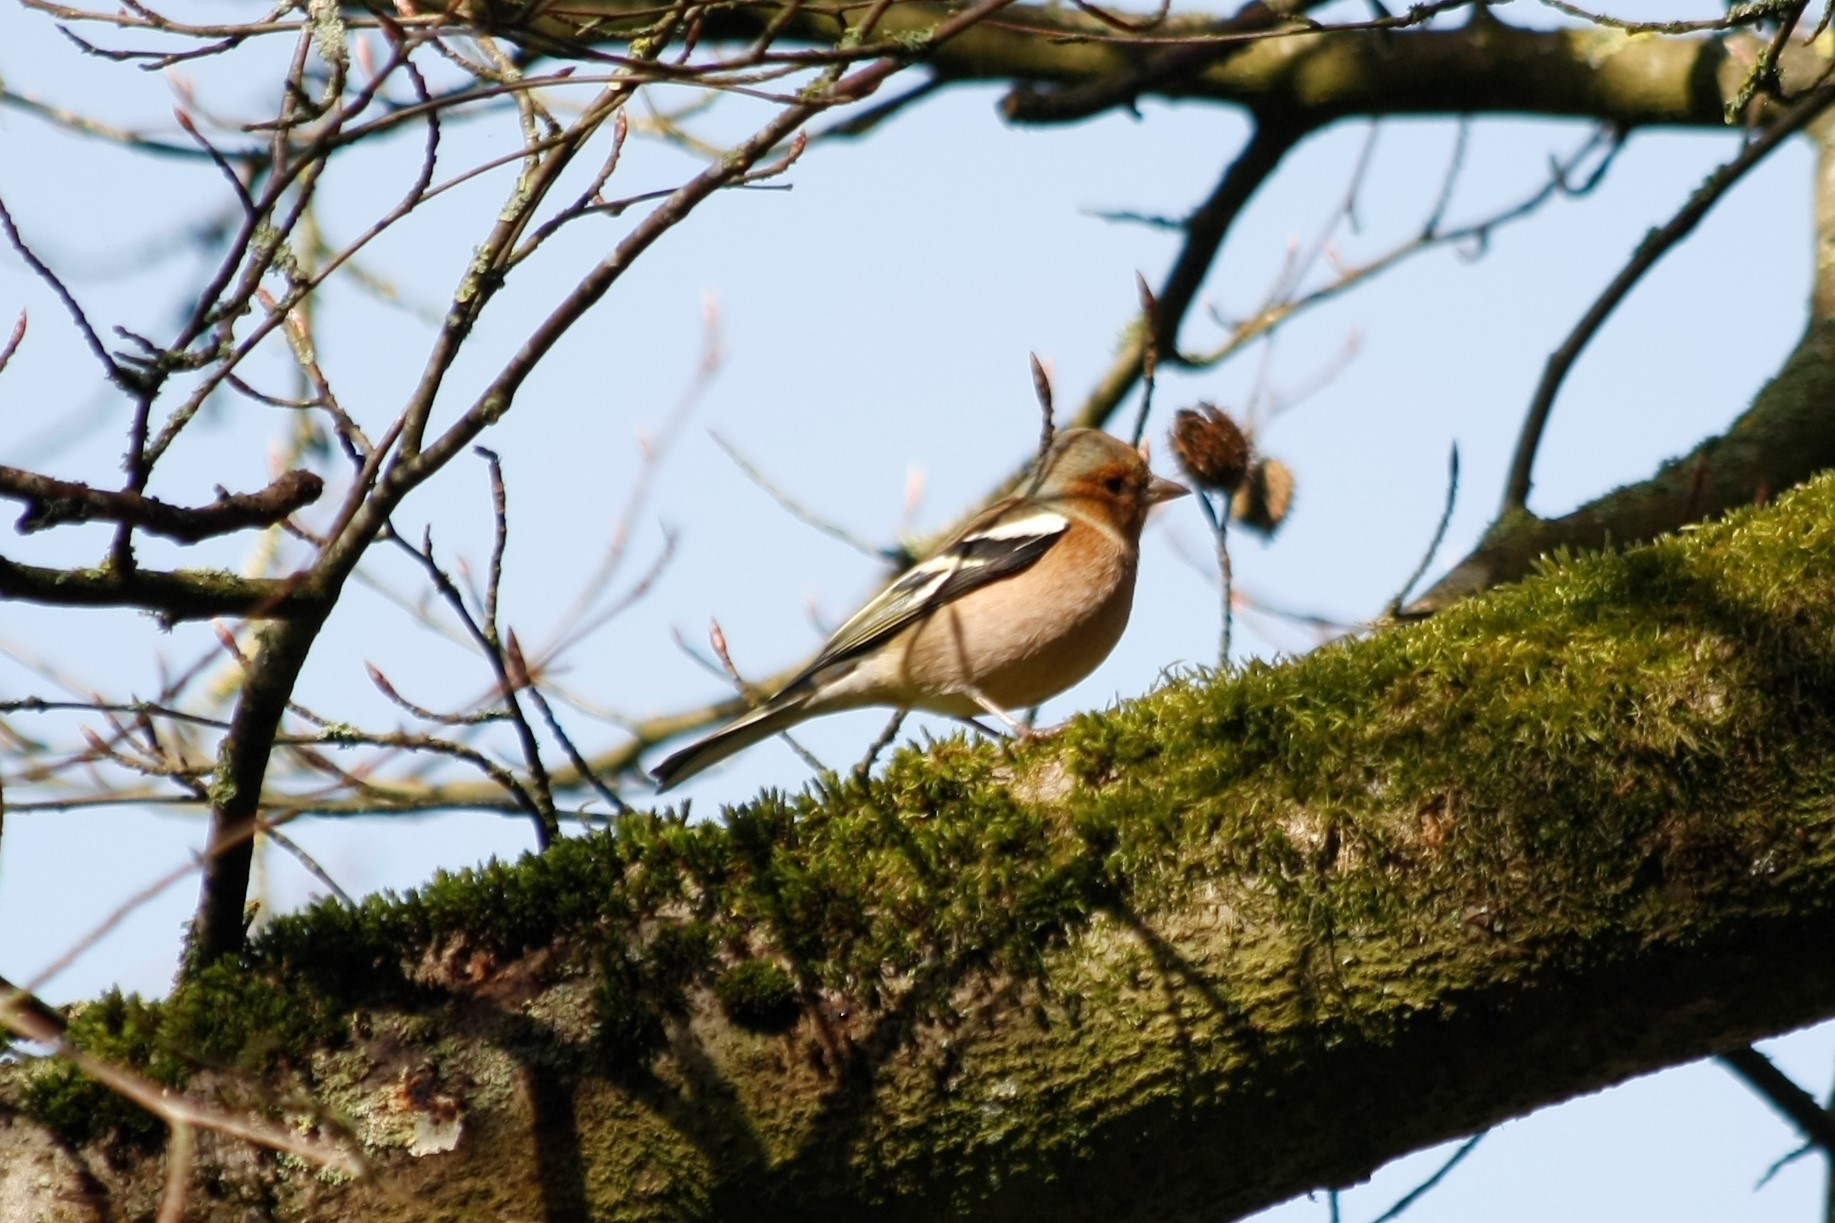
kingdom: Animalia
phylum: Chordata
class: Aves
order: Passeriformes
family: Fringillidae
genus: Fringilla
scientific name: Fringilla coelebs
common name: Common chaffinch
